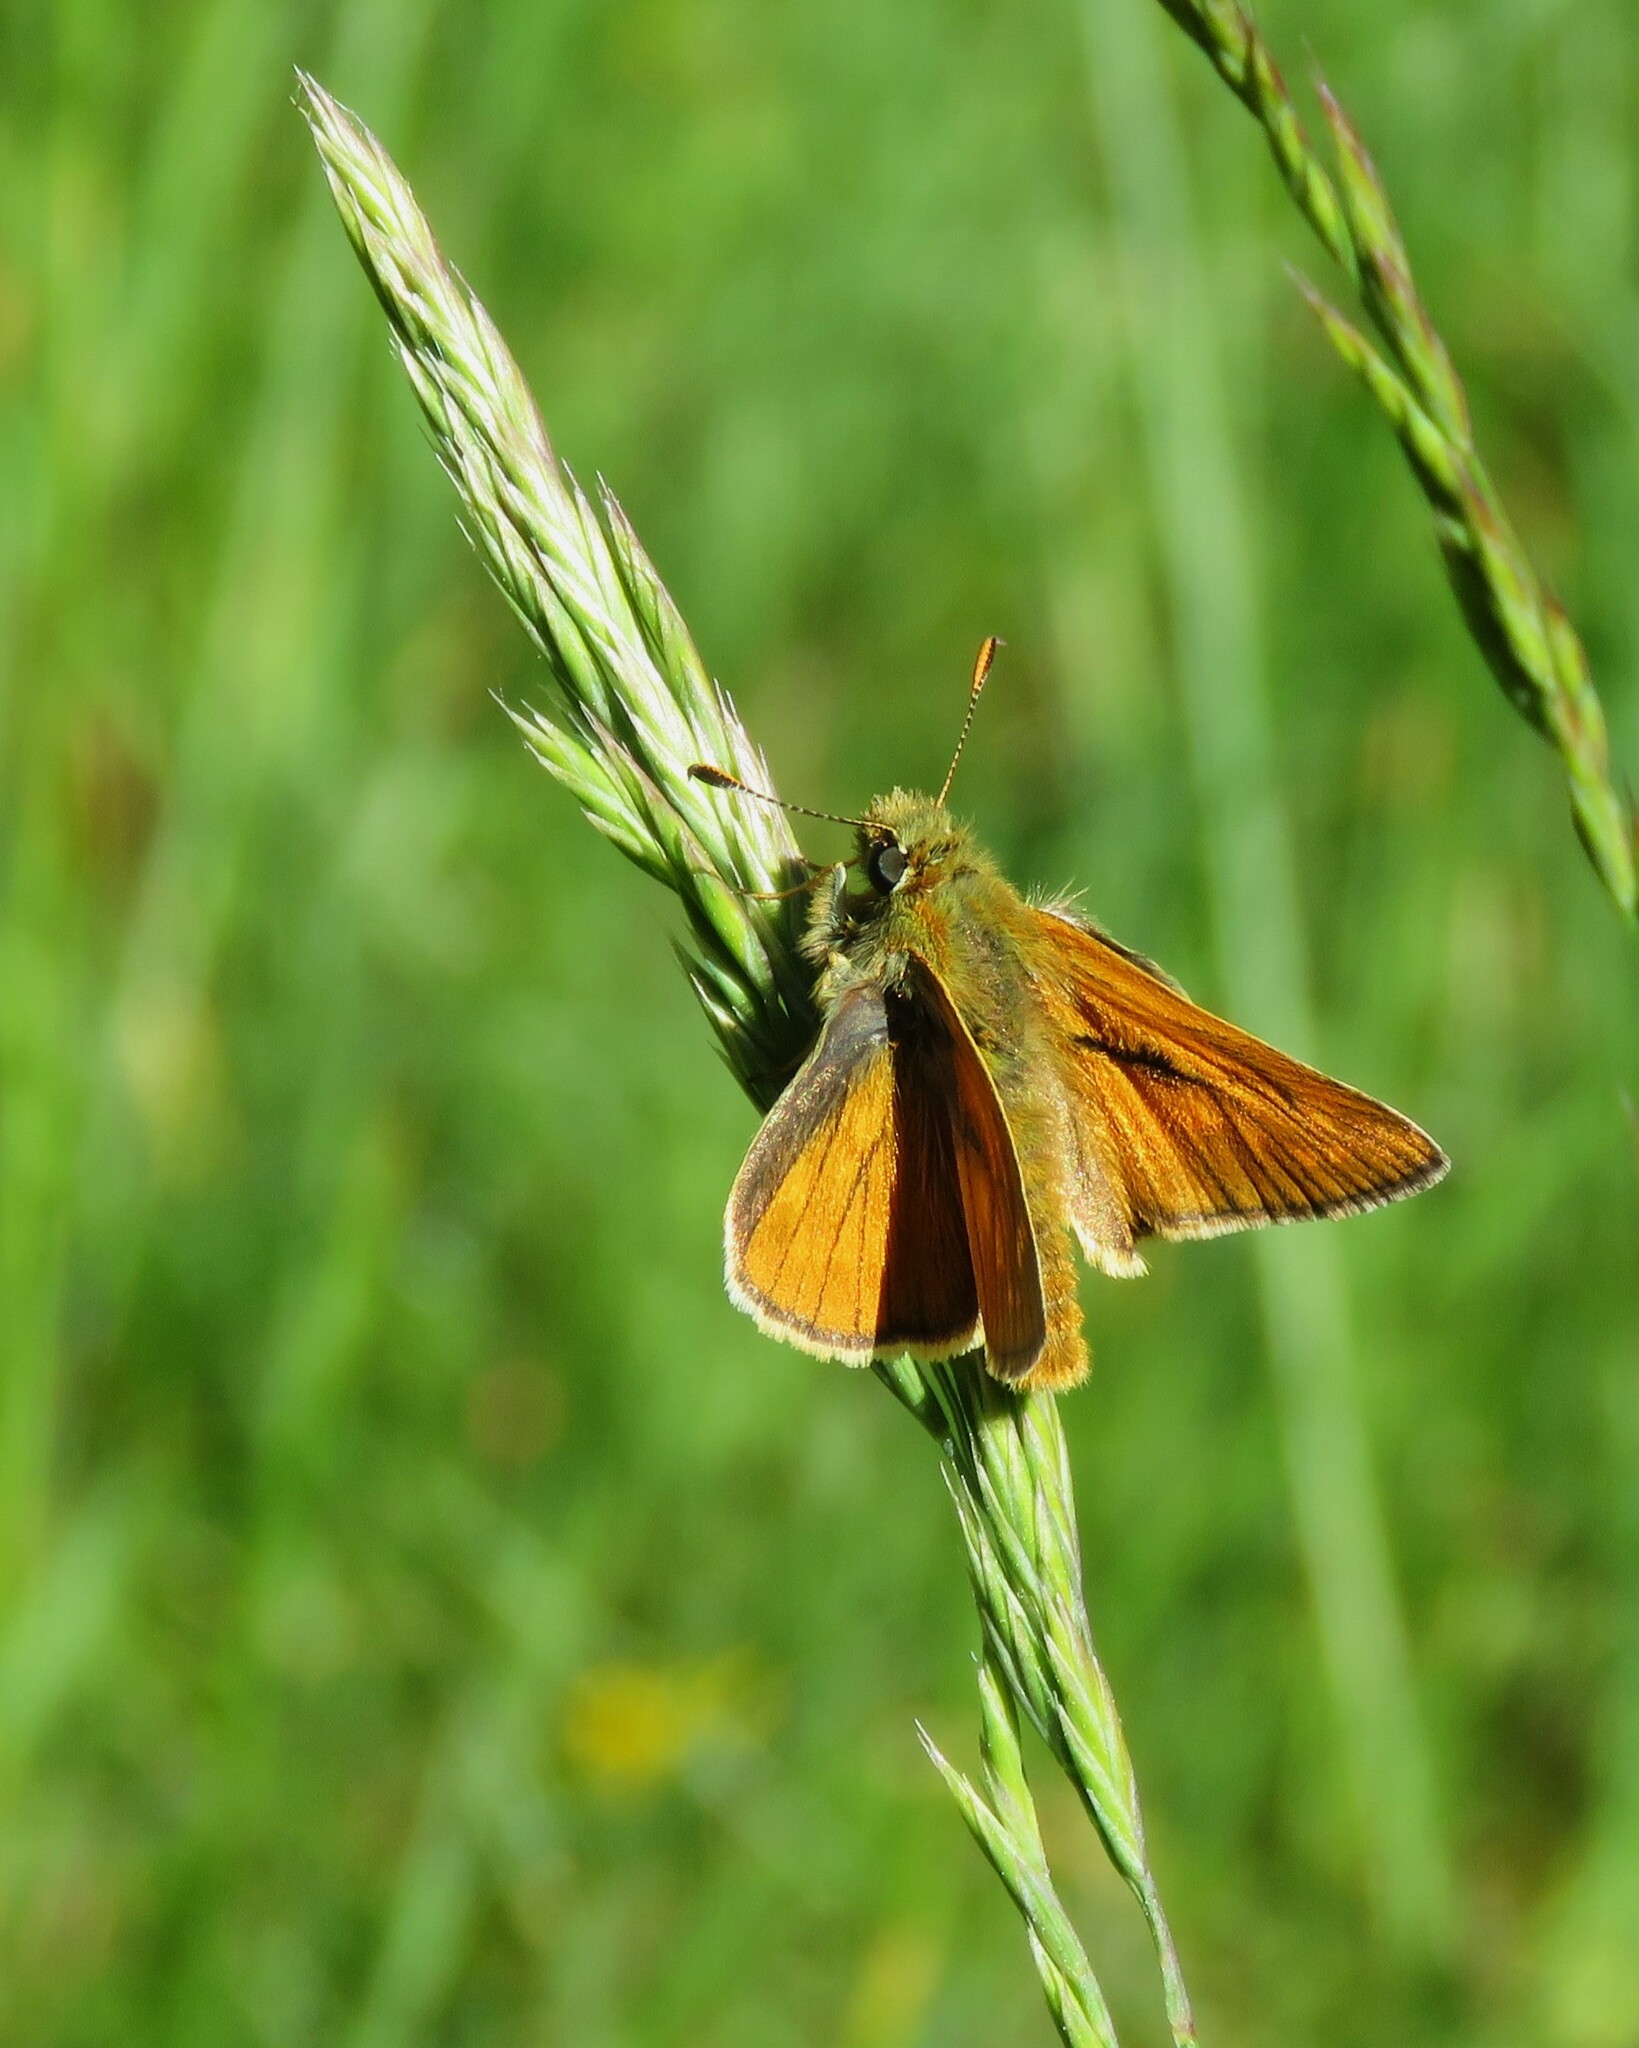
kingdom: Animalia
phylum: Arthropoda
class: Insecta
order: Lepidoptera
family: Hesperiidae
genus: Ochlodes
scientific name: Ochlodes venata
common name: Large skipper
